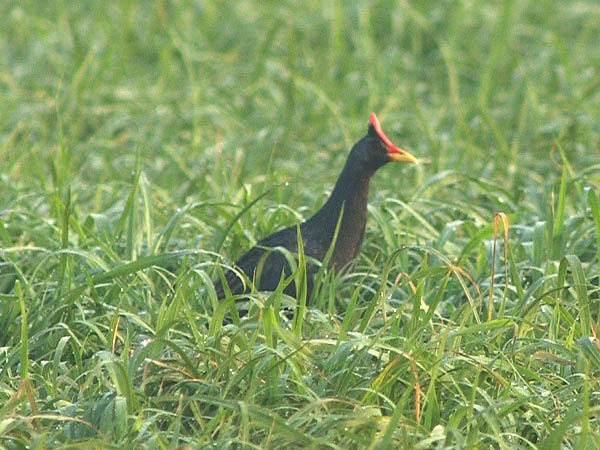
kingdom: Animalia
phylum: Chordata
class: Aves
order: Gruiformes
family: Rallidae
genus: Gallicrex
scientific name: Gallicrex cinerea
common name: Watercock
